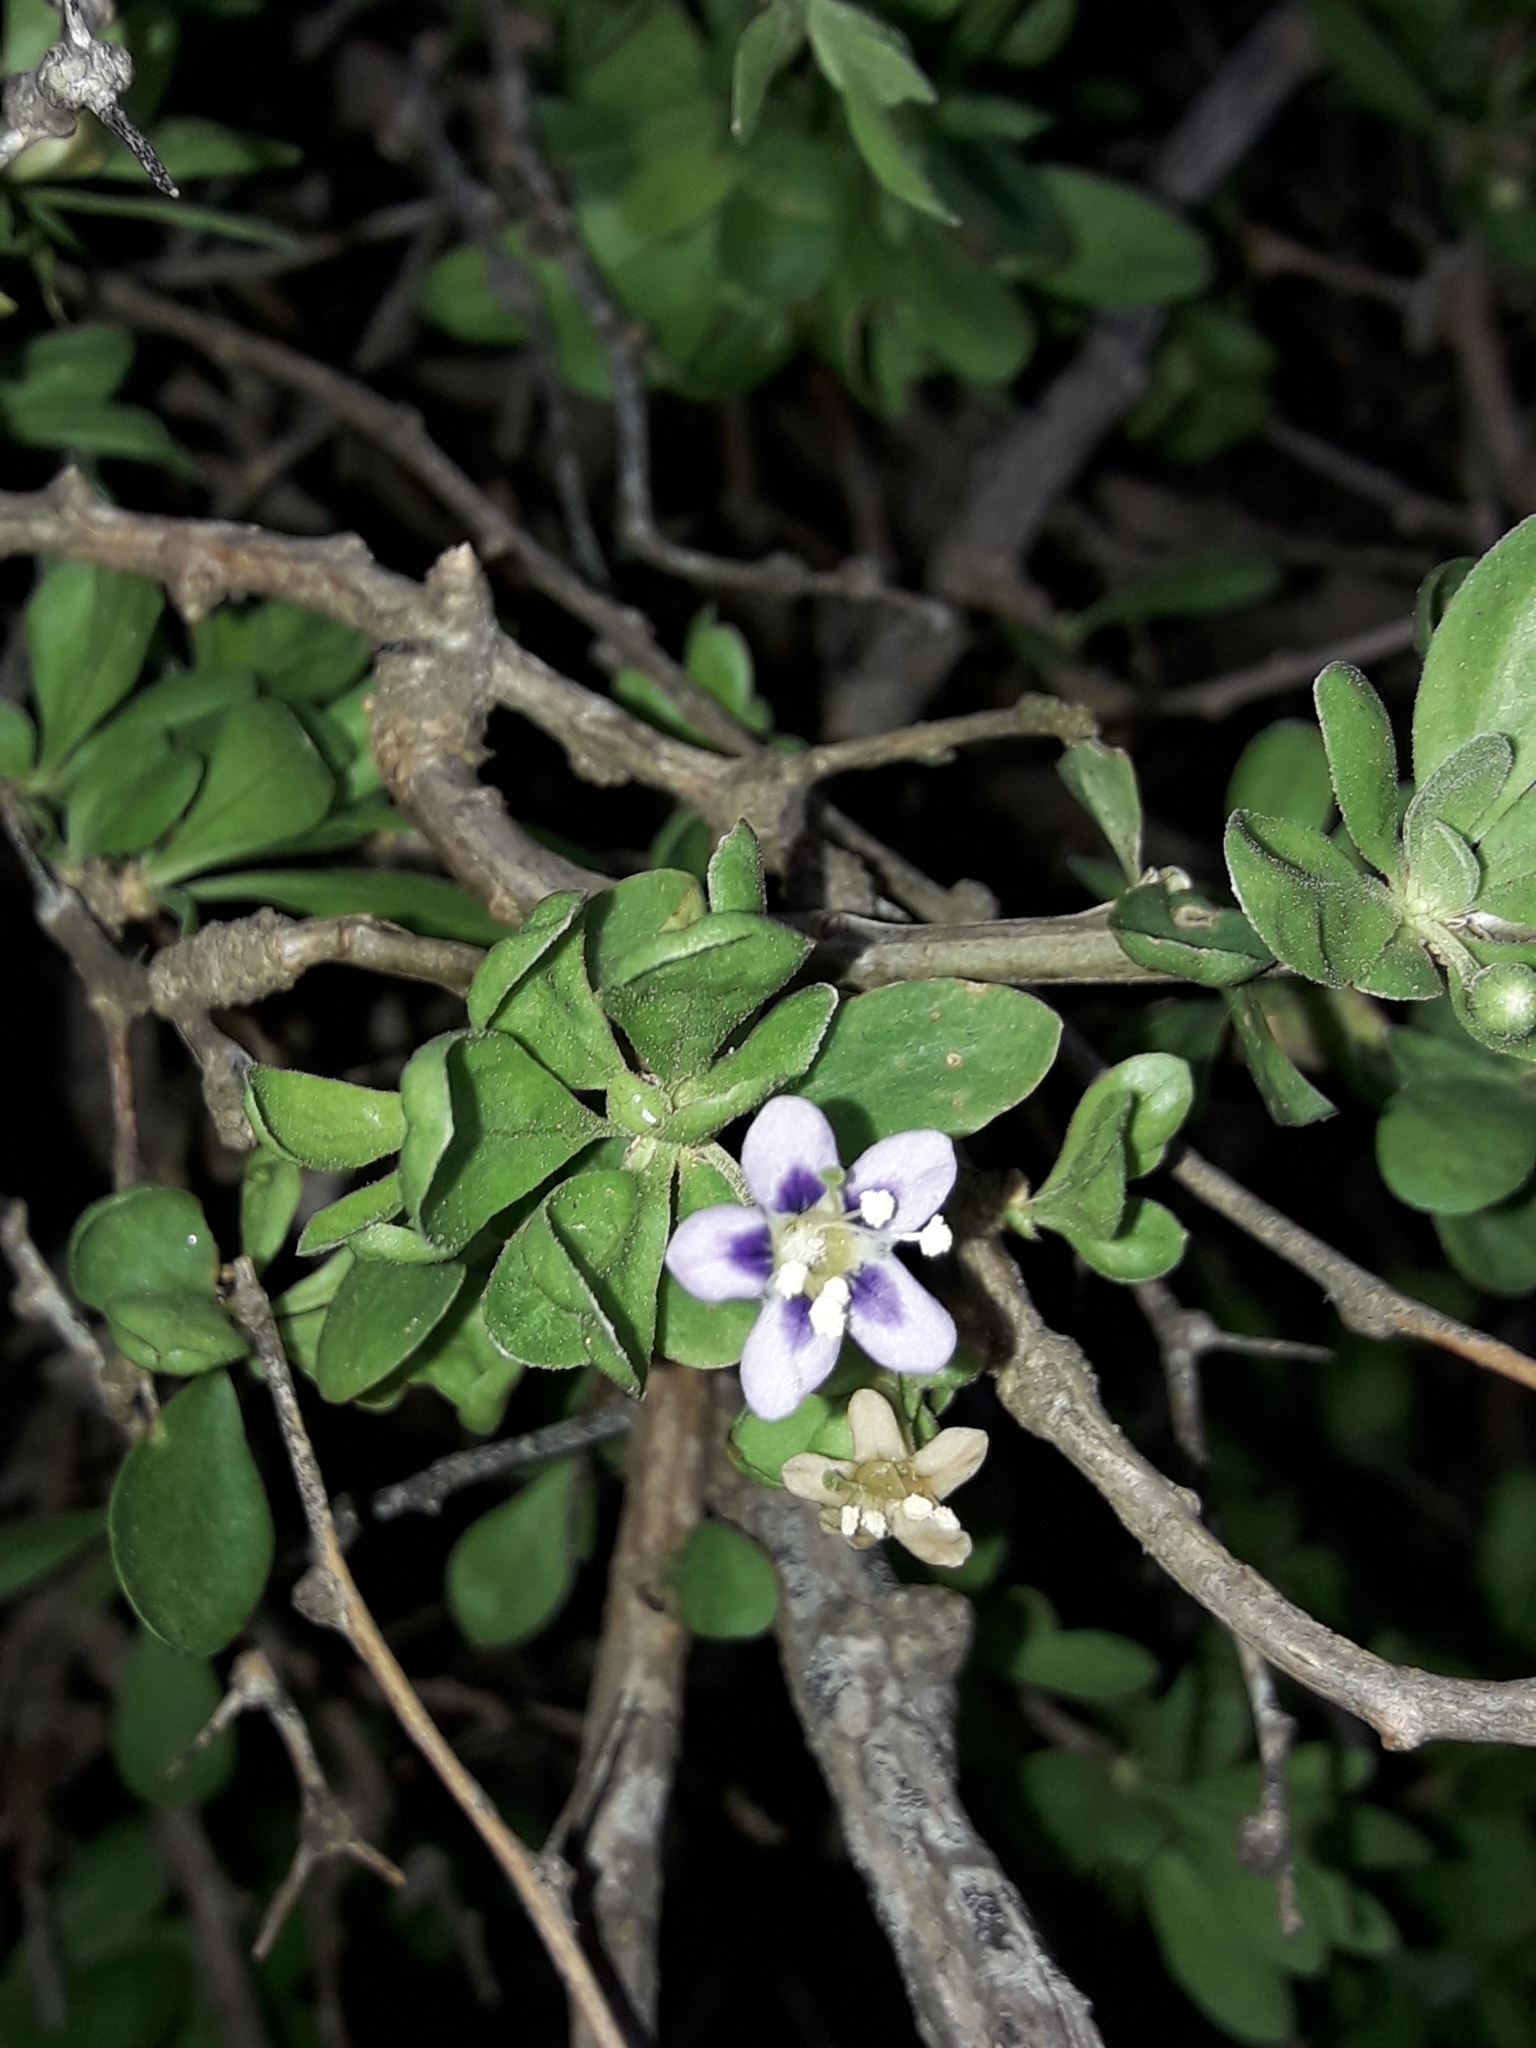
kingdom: Plantae
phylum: Tracheophyta
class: Magnoliopsida
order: Solanales
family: Solanaceae
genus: Lycium
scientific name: Lycium ferocissimum
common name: African boxthorn
